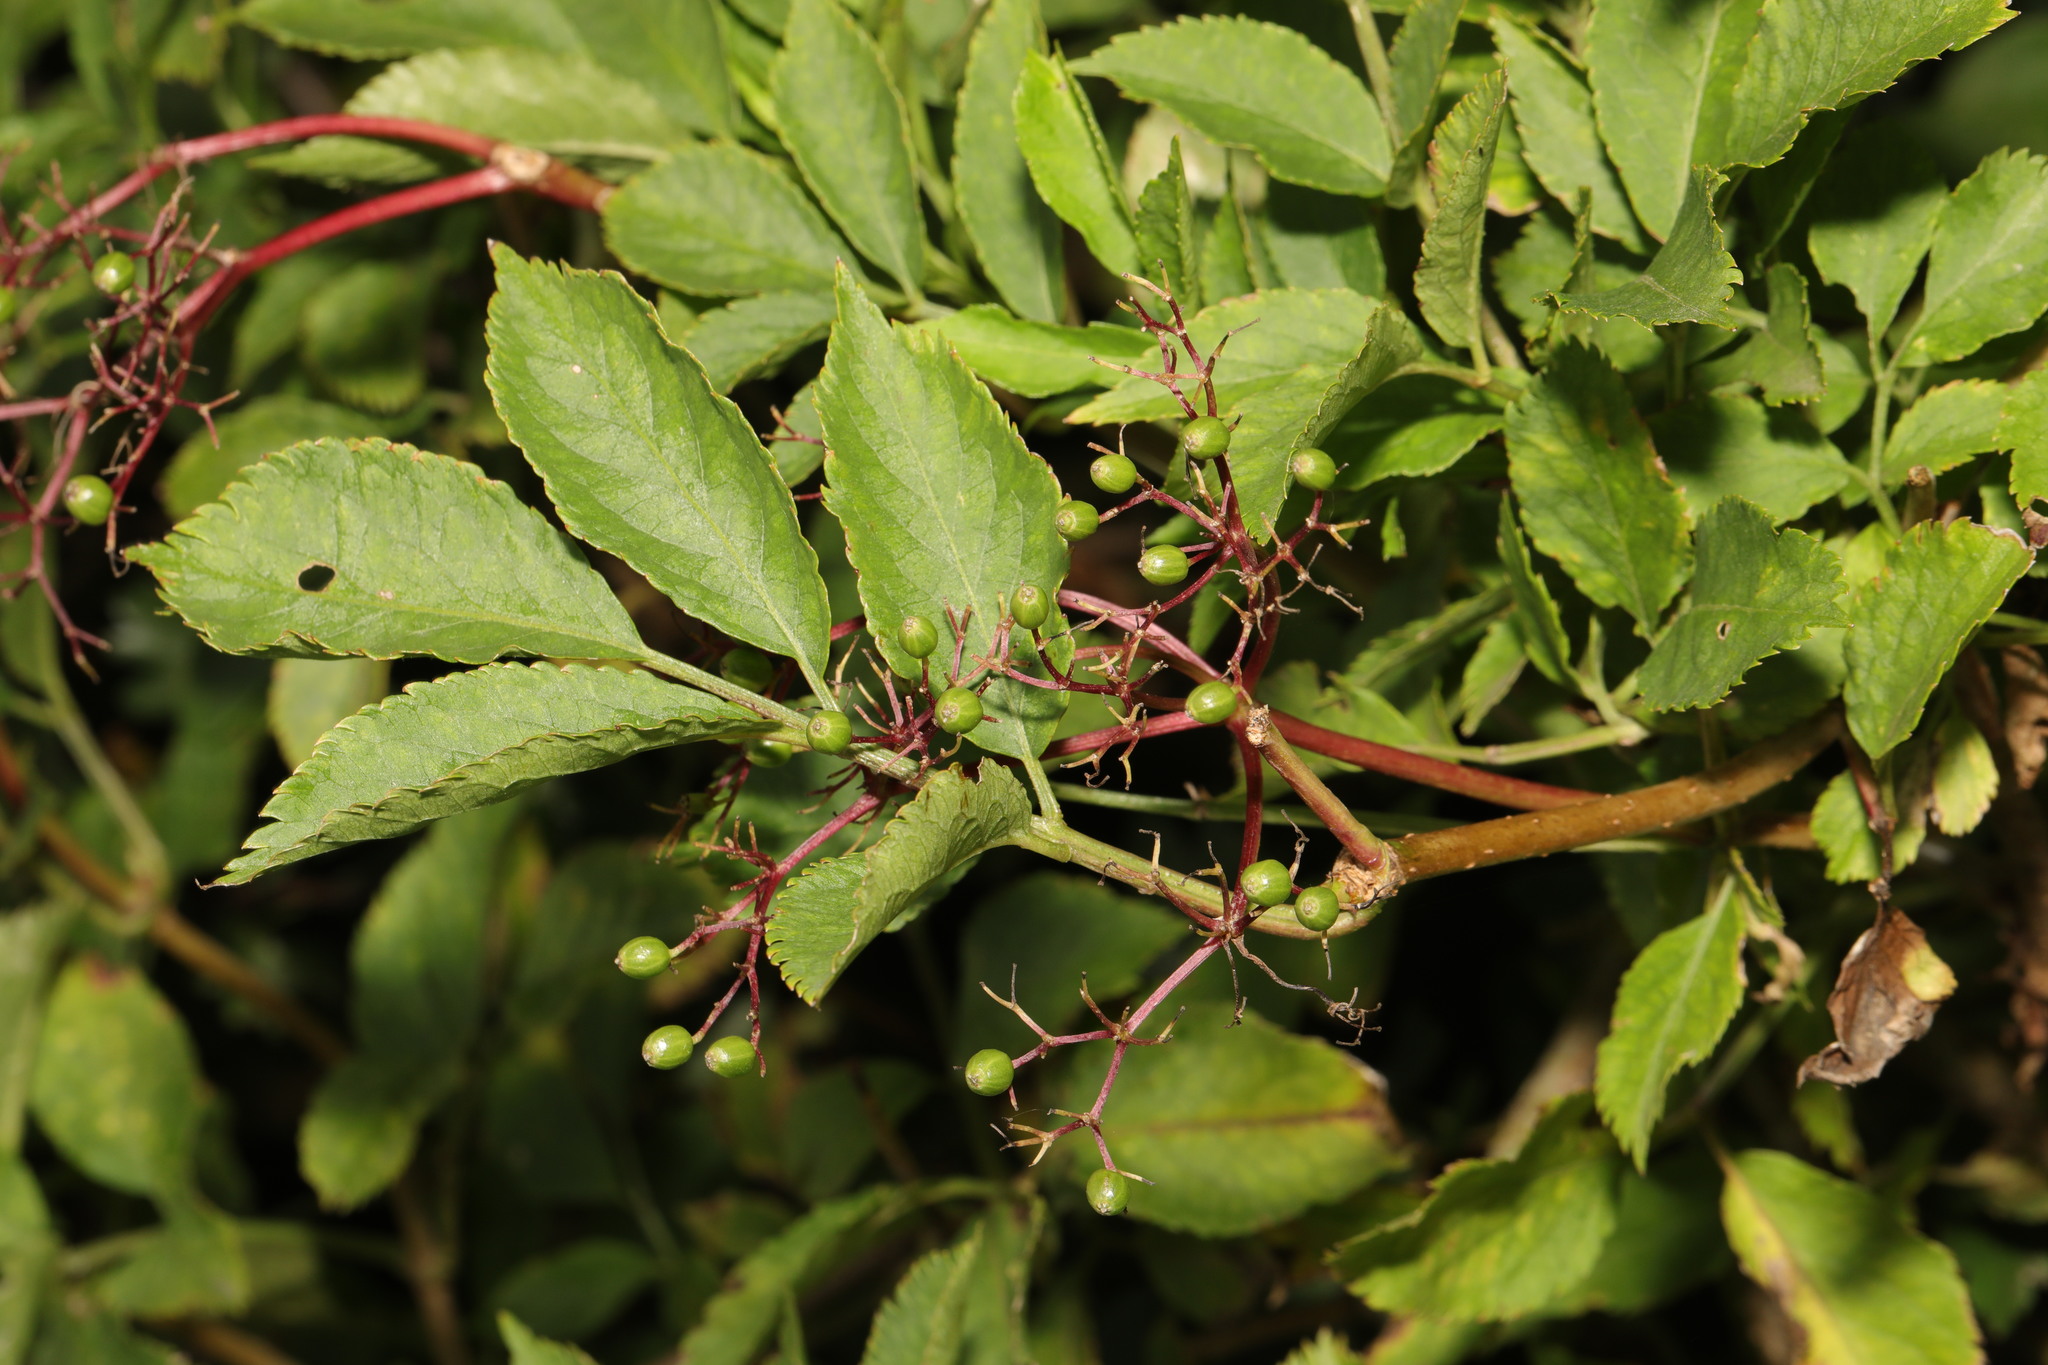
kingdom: Plantae
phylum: Tracheophyta
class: Magnoliopsida
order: Dipsacales
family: Viburnaceae
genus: Sambucus
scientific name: Sambucus nigra
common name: Elder
